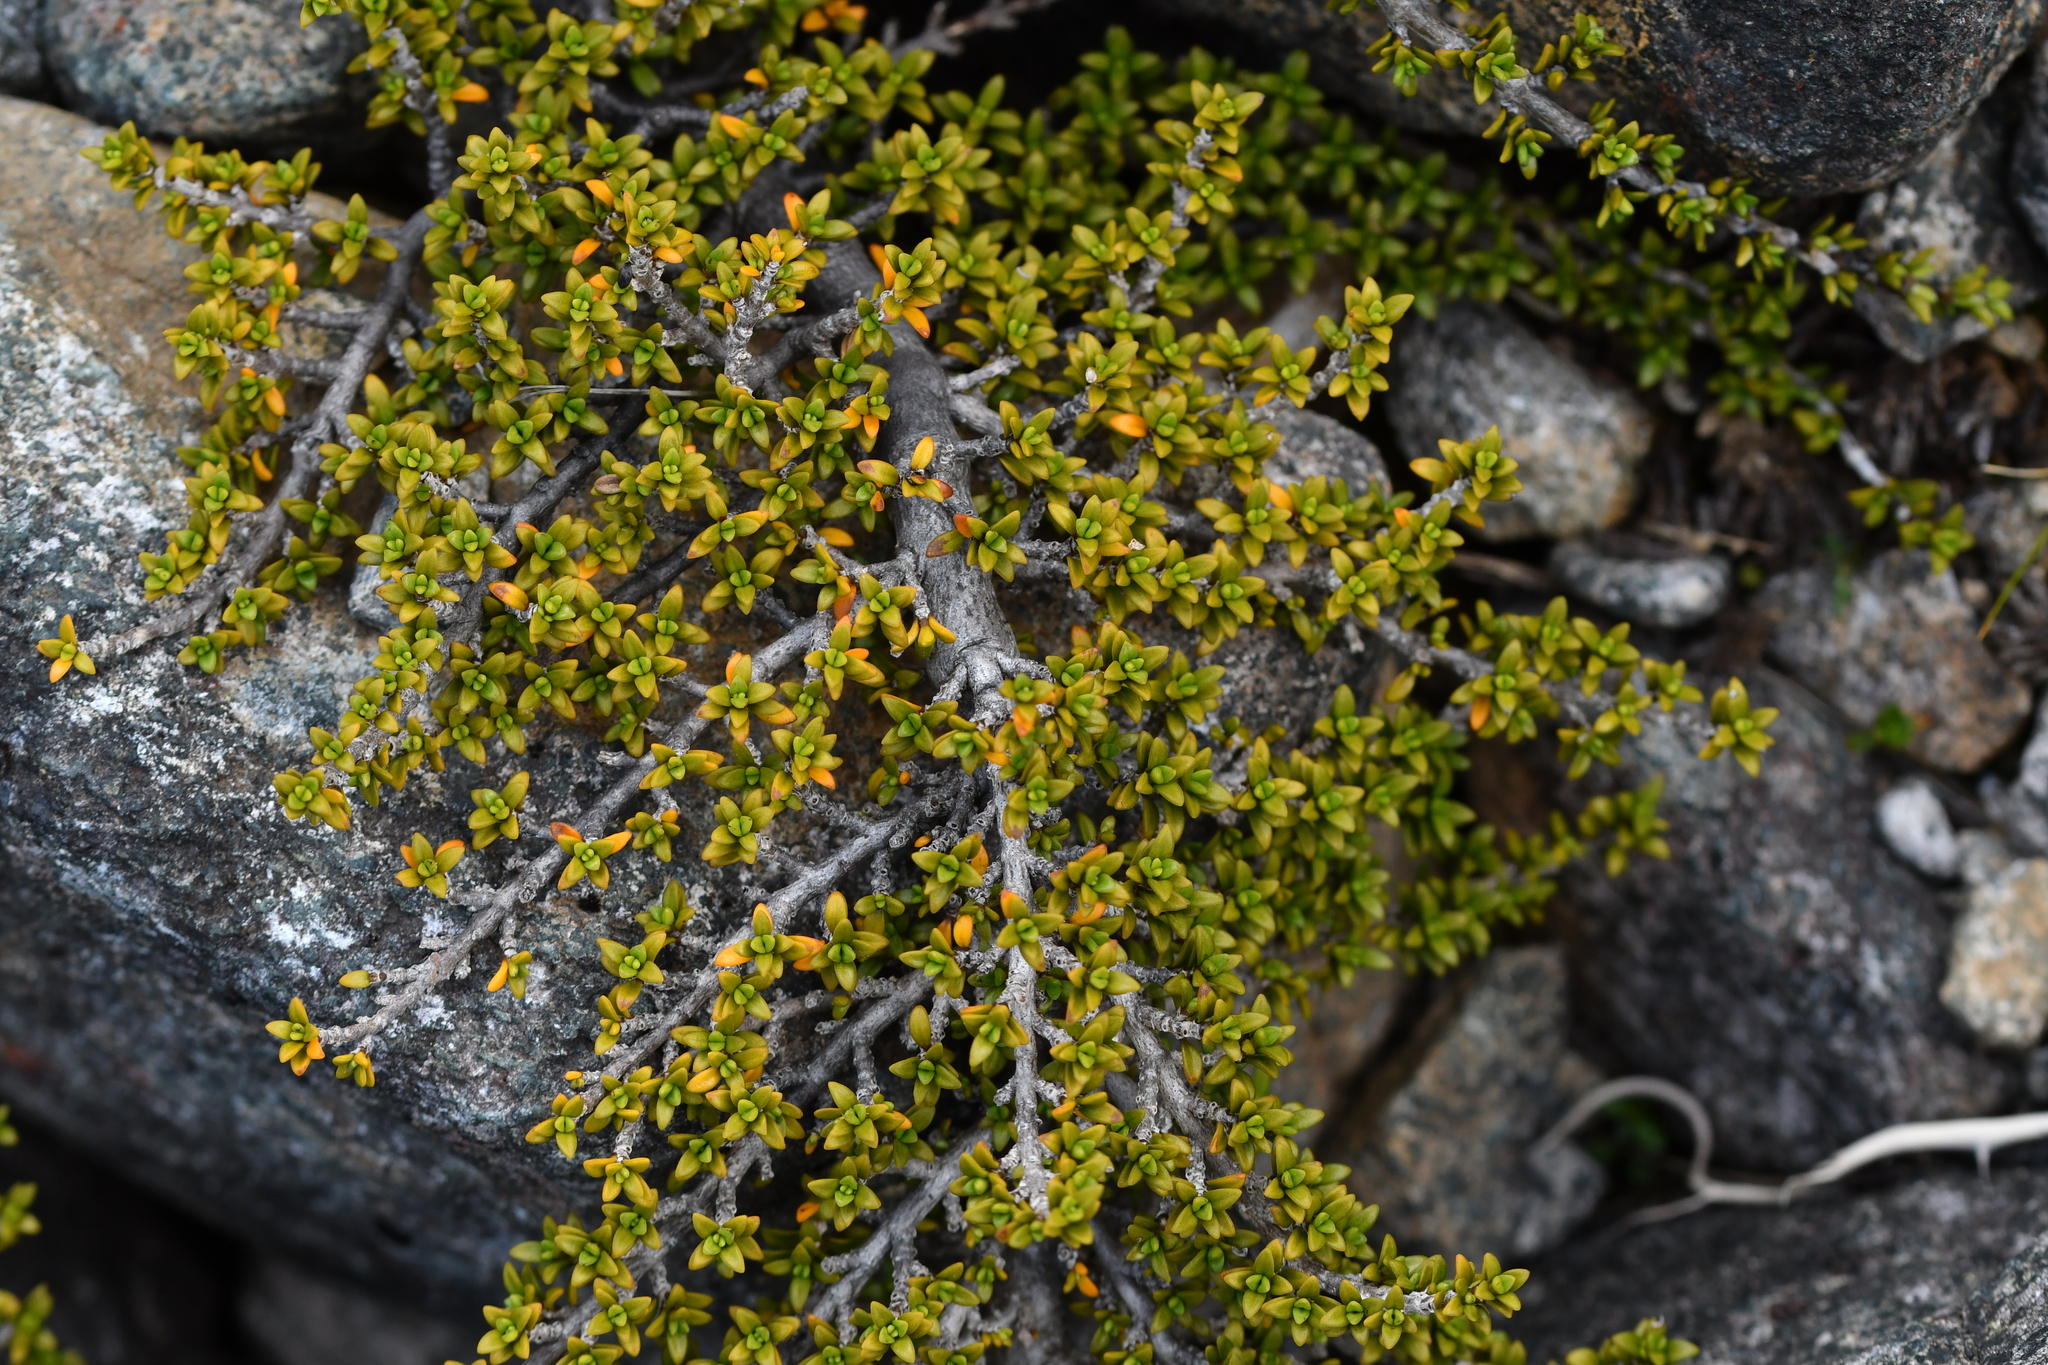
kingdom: Plantae
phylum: Tracheophyta
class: Magnoliopsida
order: Gentianales
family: Rubiaceae
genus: Coprosma
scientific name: Coprosma fowerakeri
